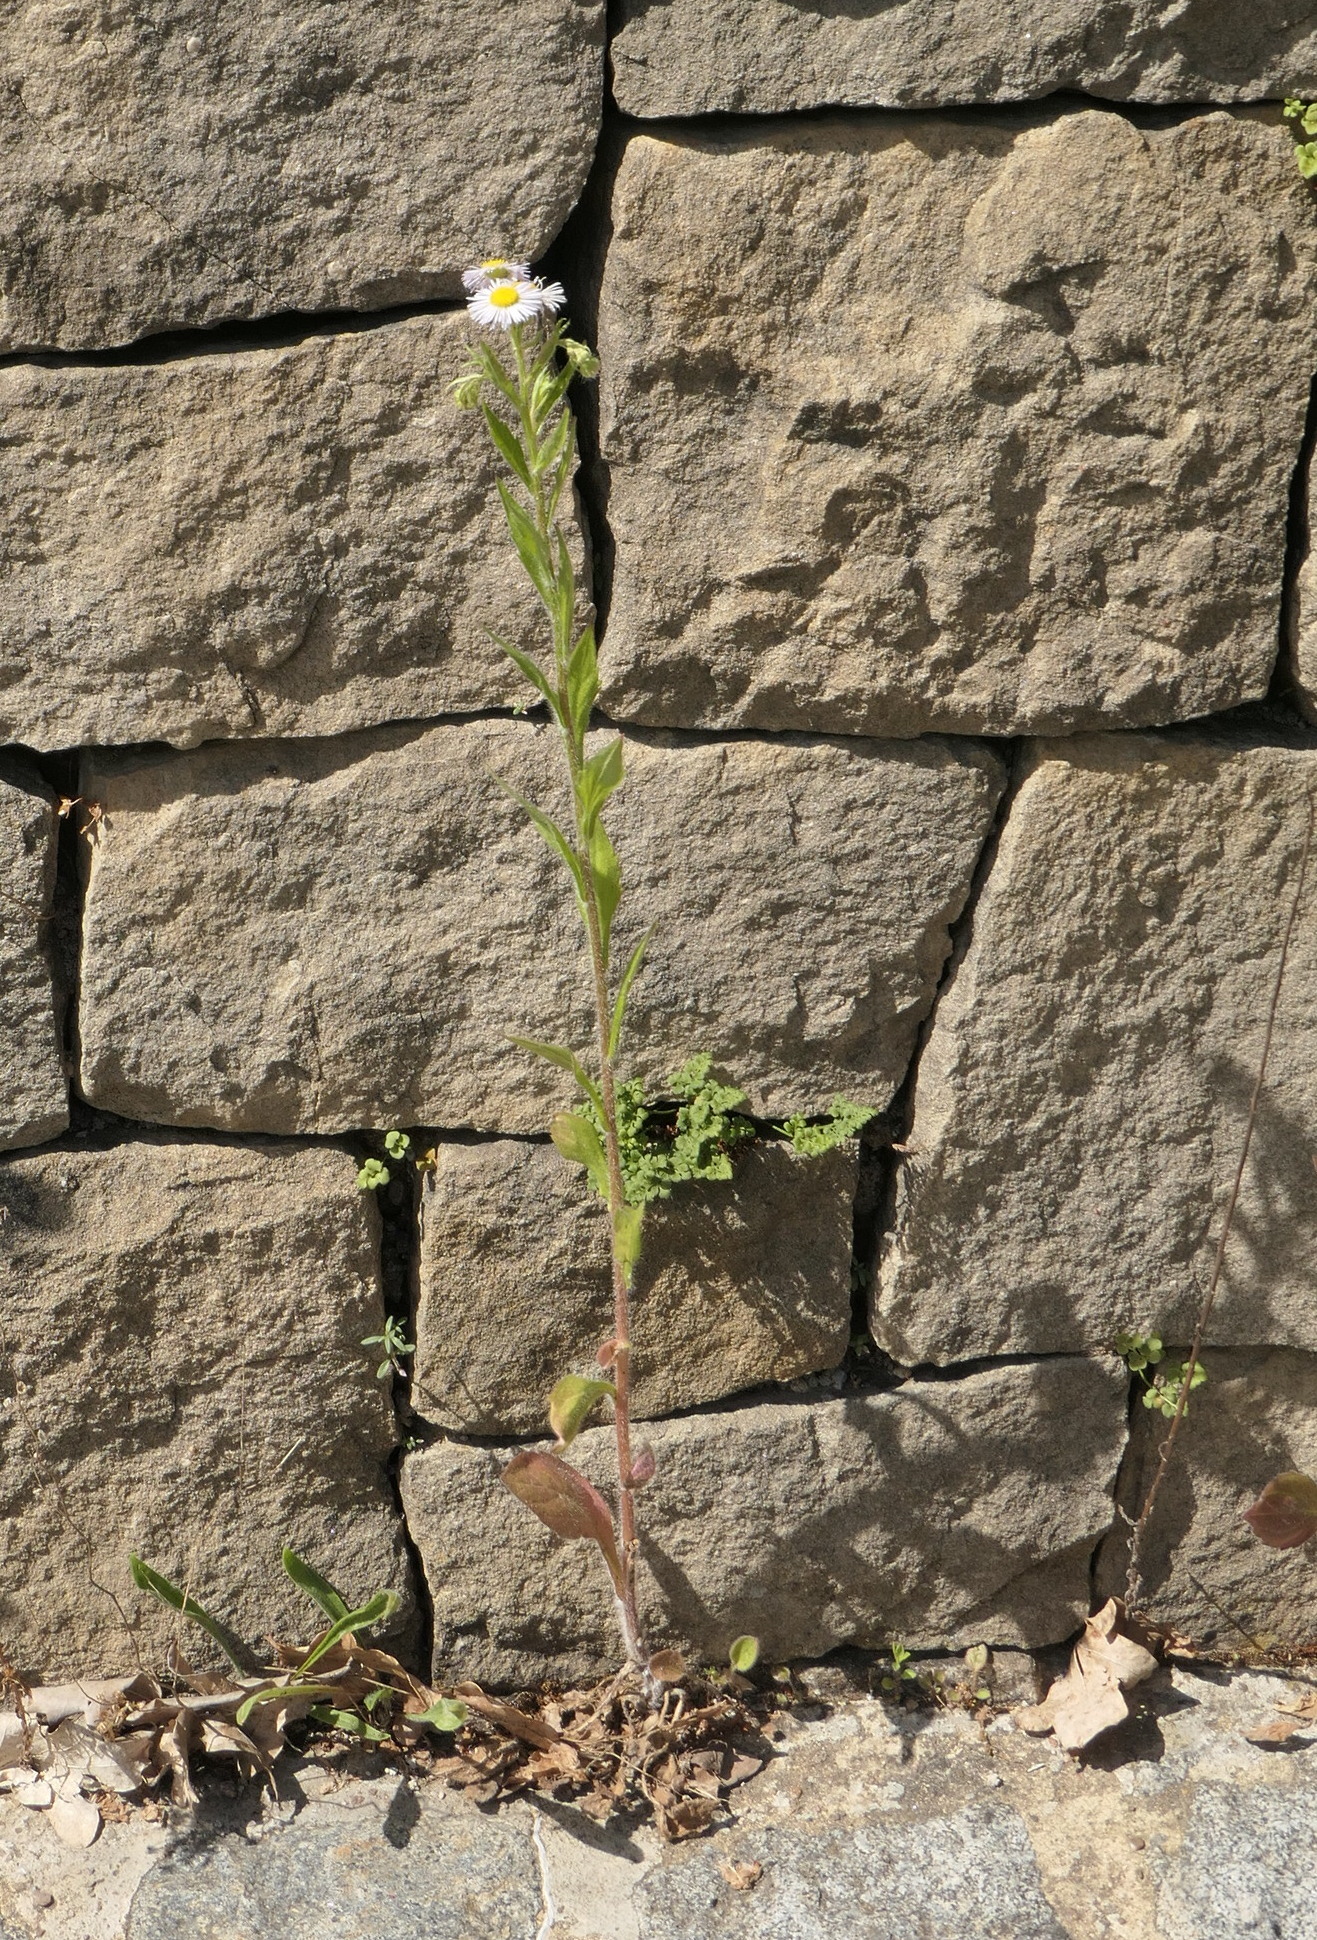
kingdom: Plantae
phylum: Tracheophyta
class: Magnoliopsida
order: Asterales
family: Asteraceae
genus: Erigeron
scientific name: Erigeron annuus
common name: Tall fleabane
